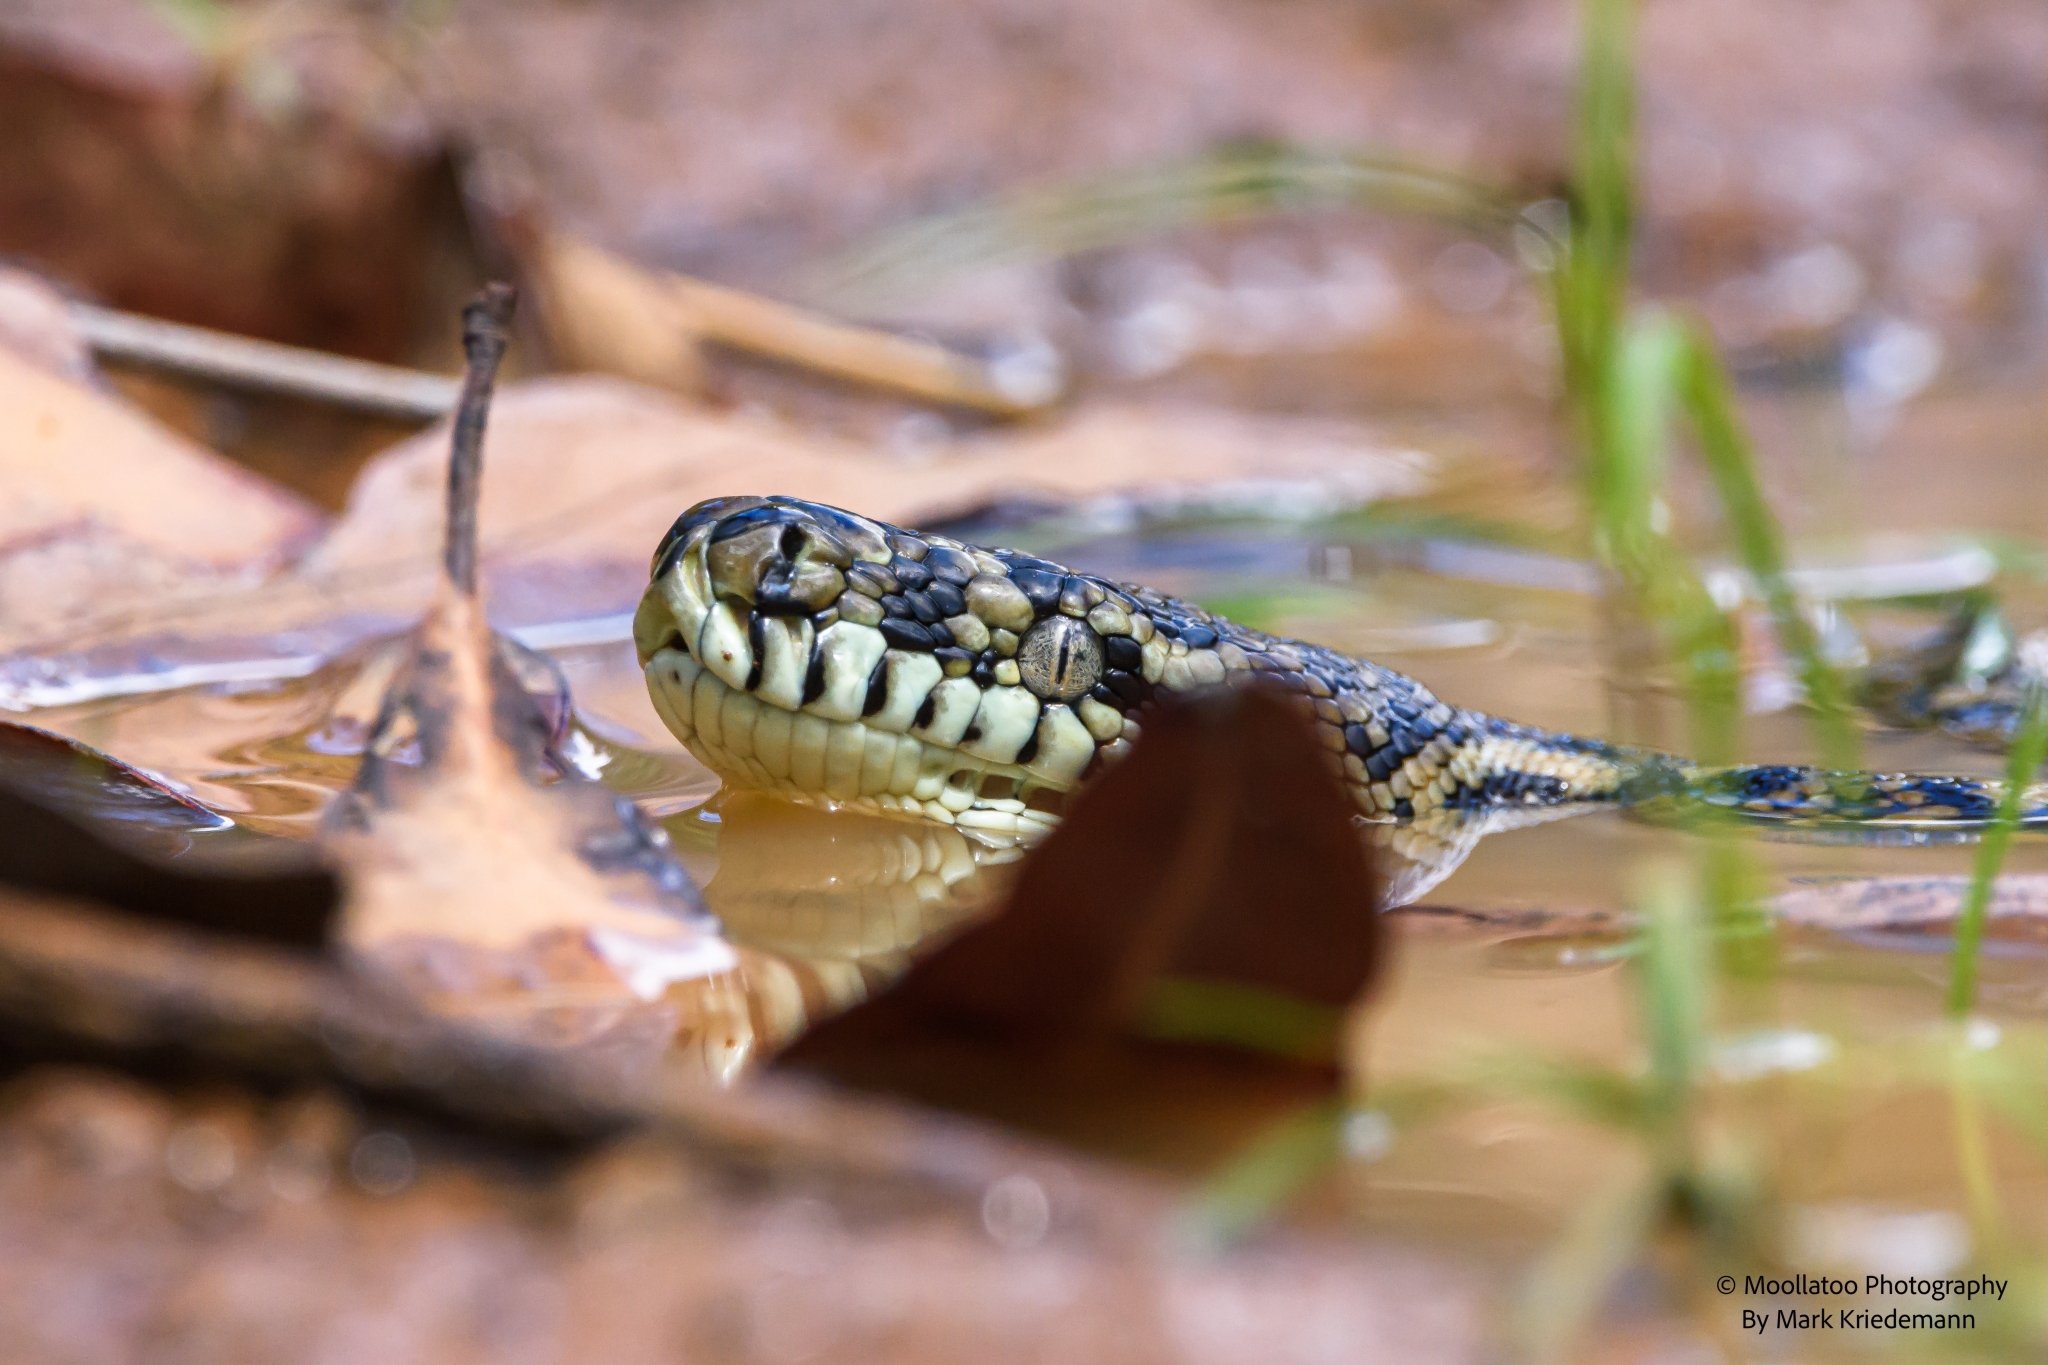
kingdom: Animalia
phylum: Chordata
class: Squamata
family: Pythonidae
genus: Morelia
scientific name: Morelia spilota
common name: Carpet python
